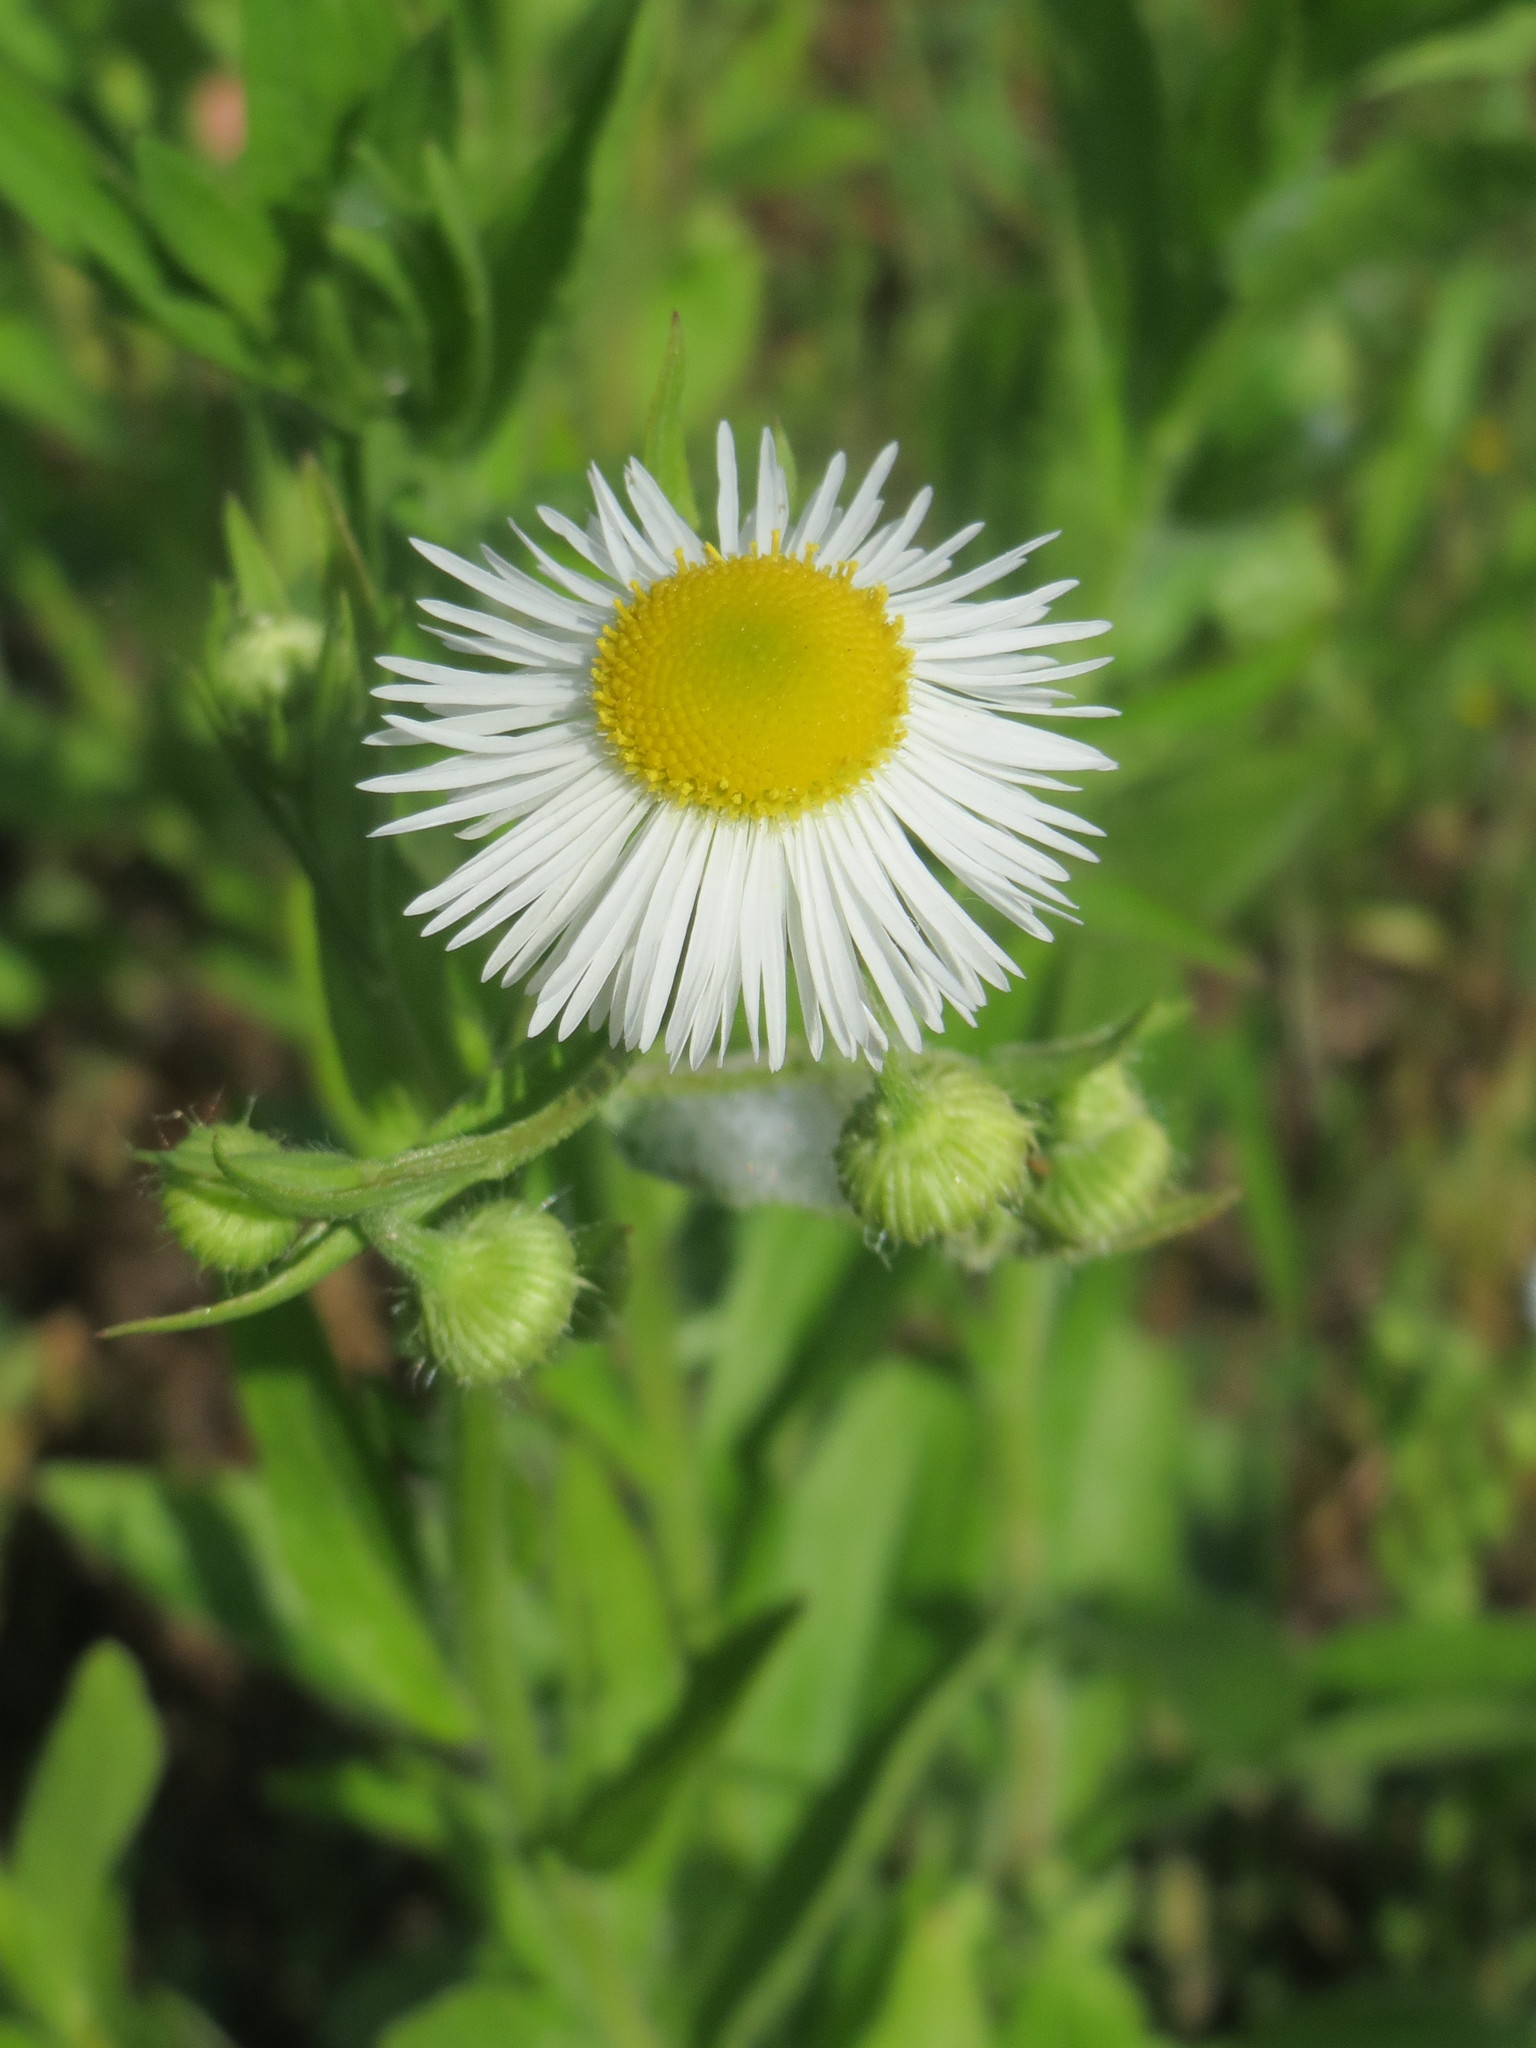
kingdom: Plantae
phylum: Tracheophyta
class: Magnoliopsida
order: Asterales
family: Asteraceae
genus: Erigeron
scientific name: Erigeron annuus
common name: Tall fleabane
